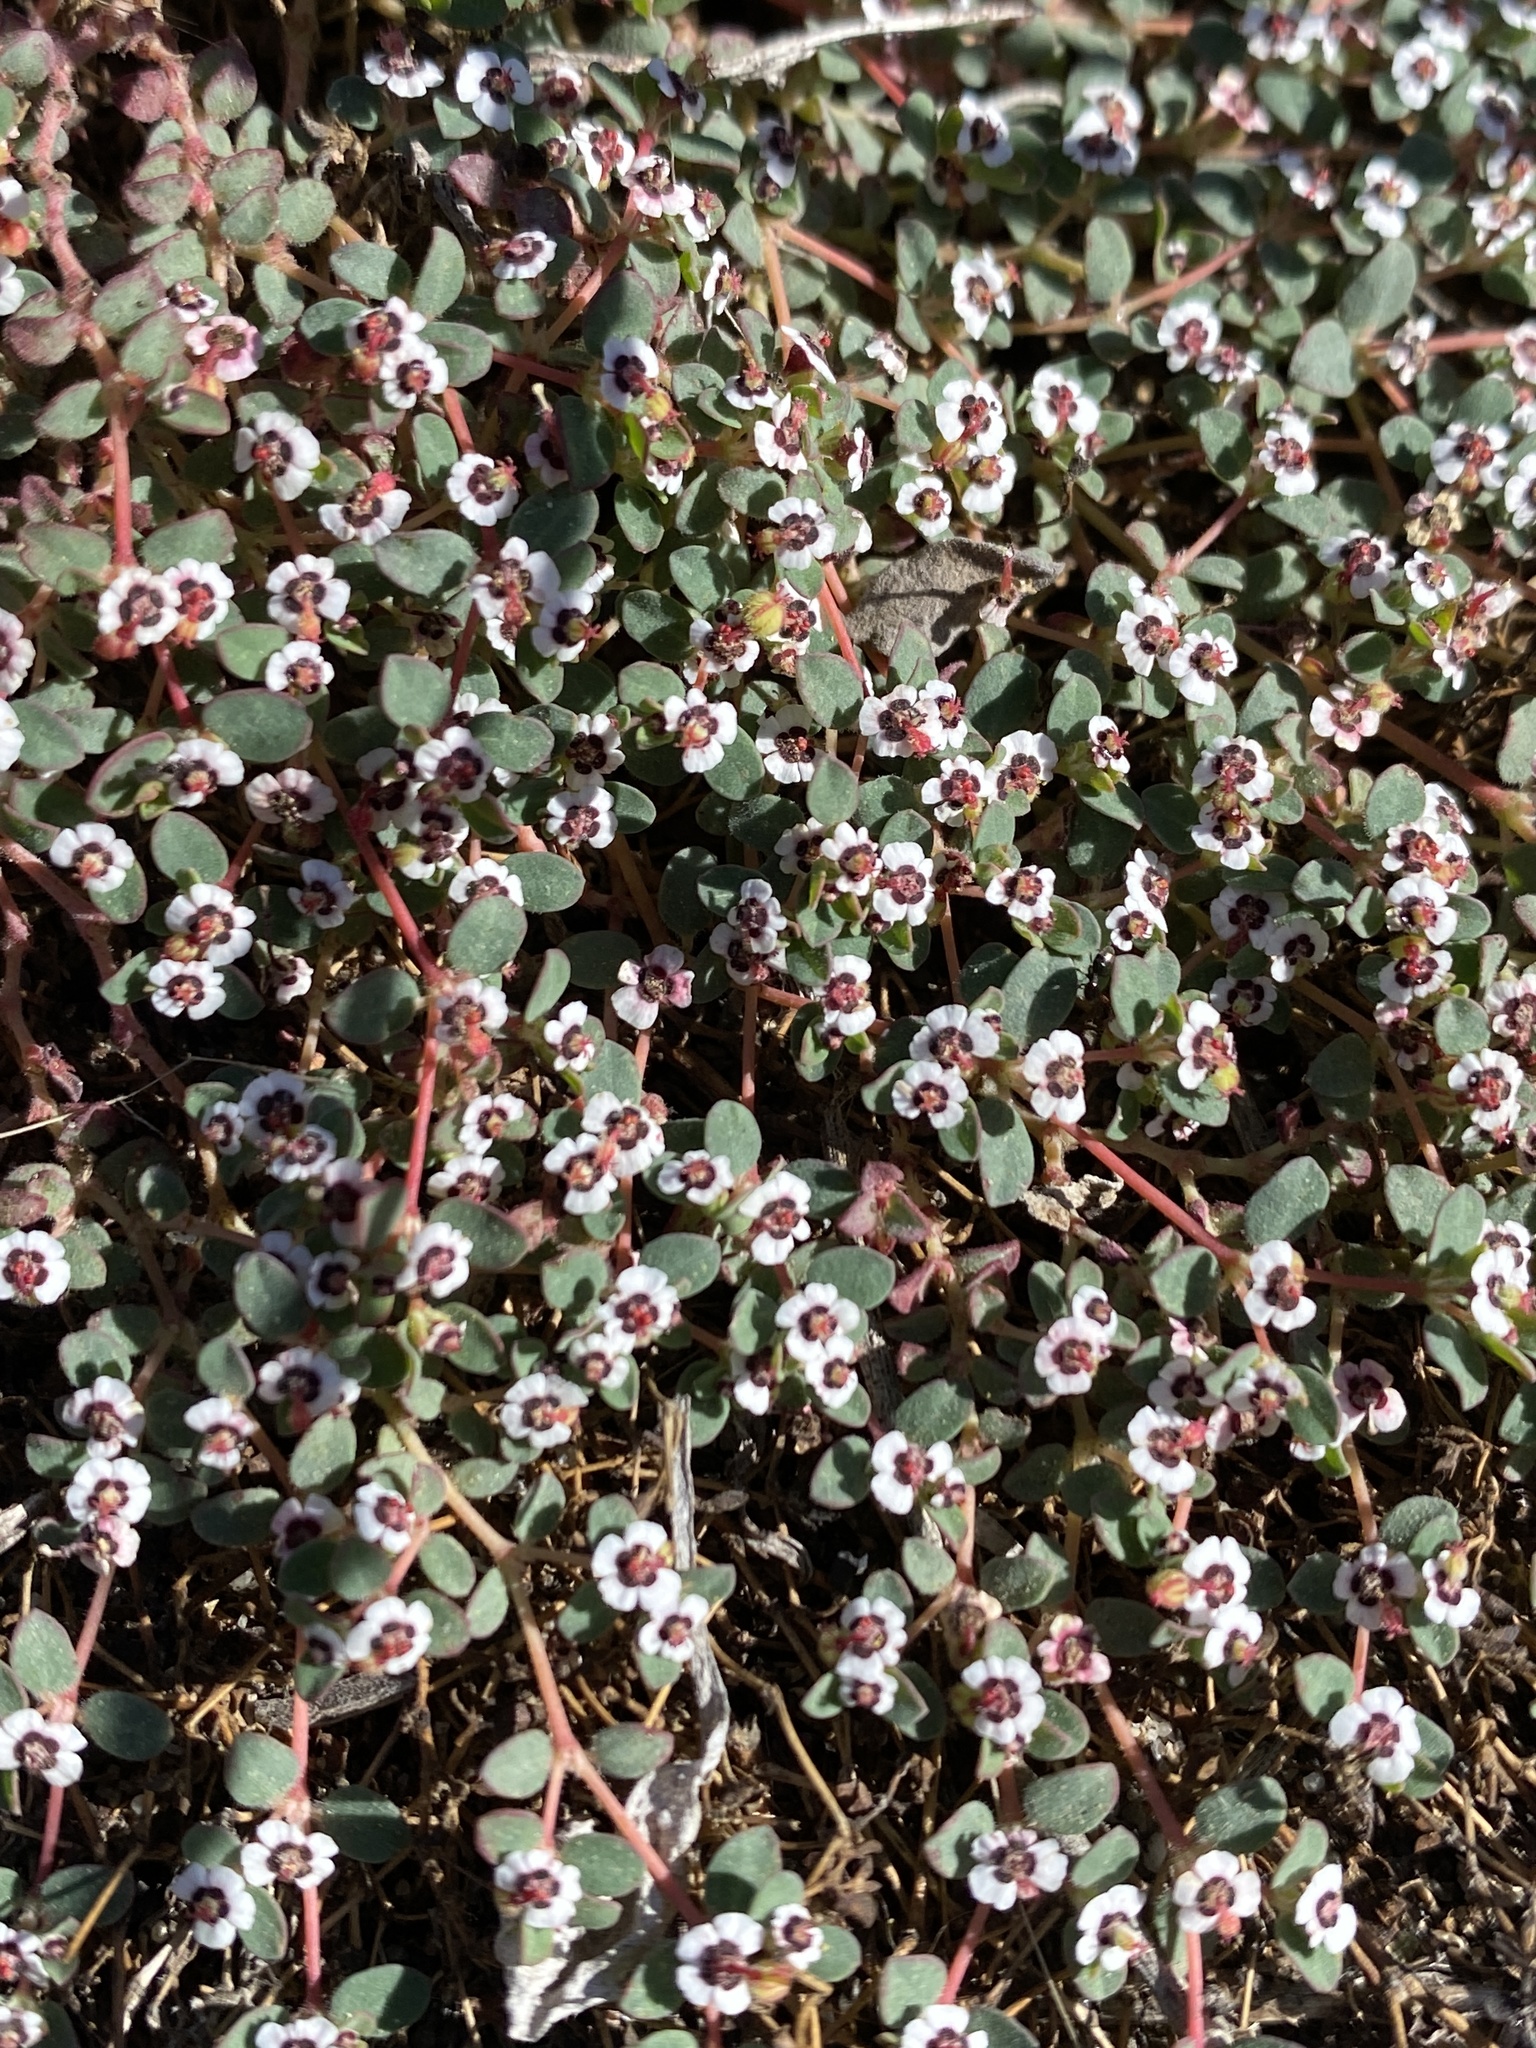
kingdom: Plantae
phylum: Tracheophyta
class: Magnoliopsida
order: Malpighiales
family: Euphorbiaceae
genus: Euphorbia
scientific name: Euphorbia polycarpa
